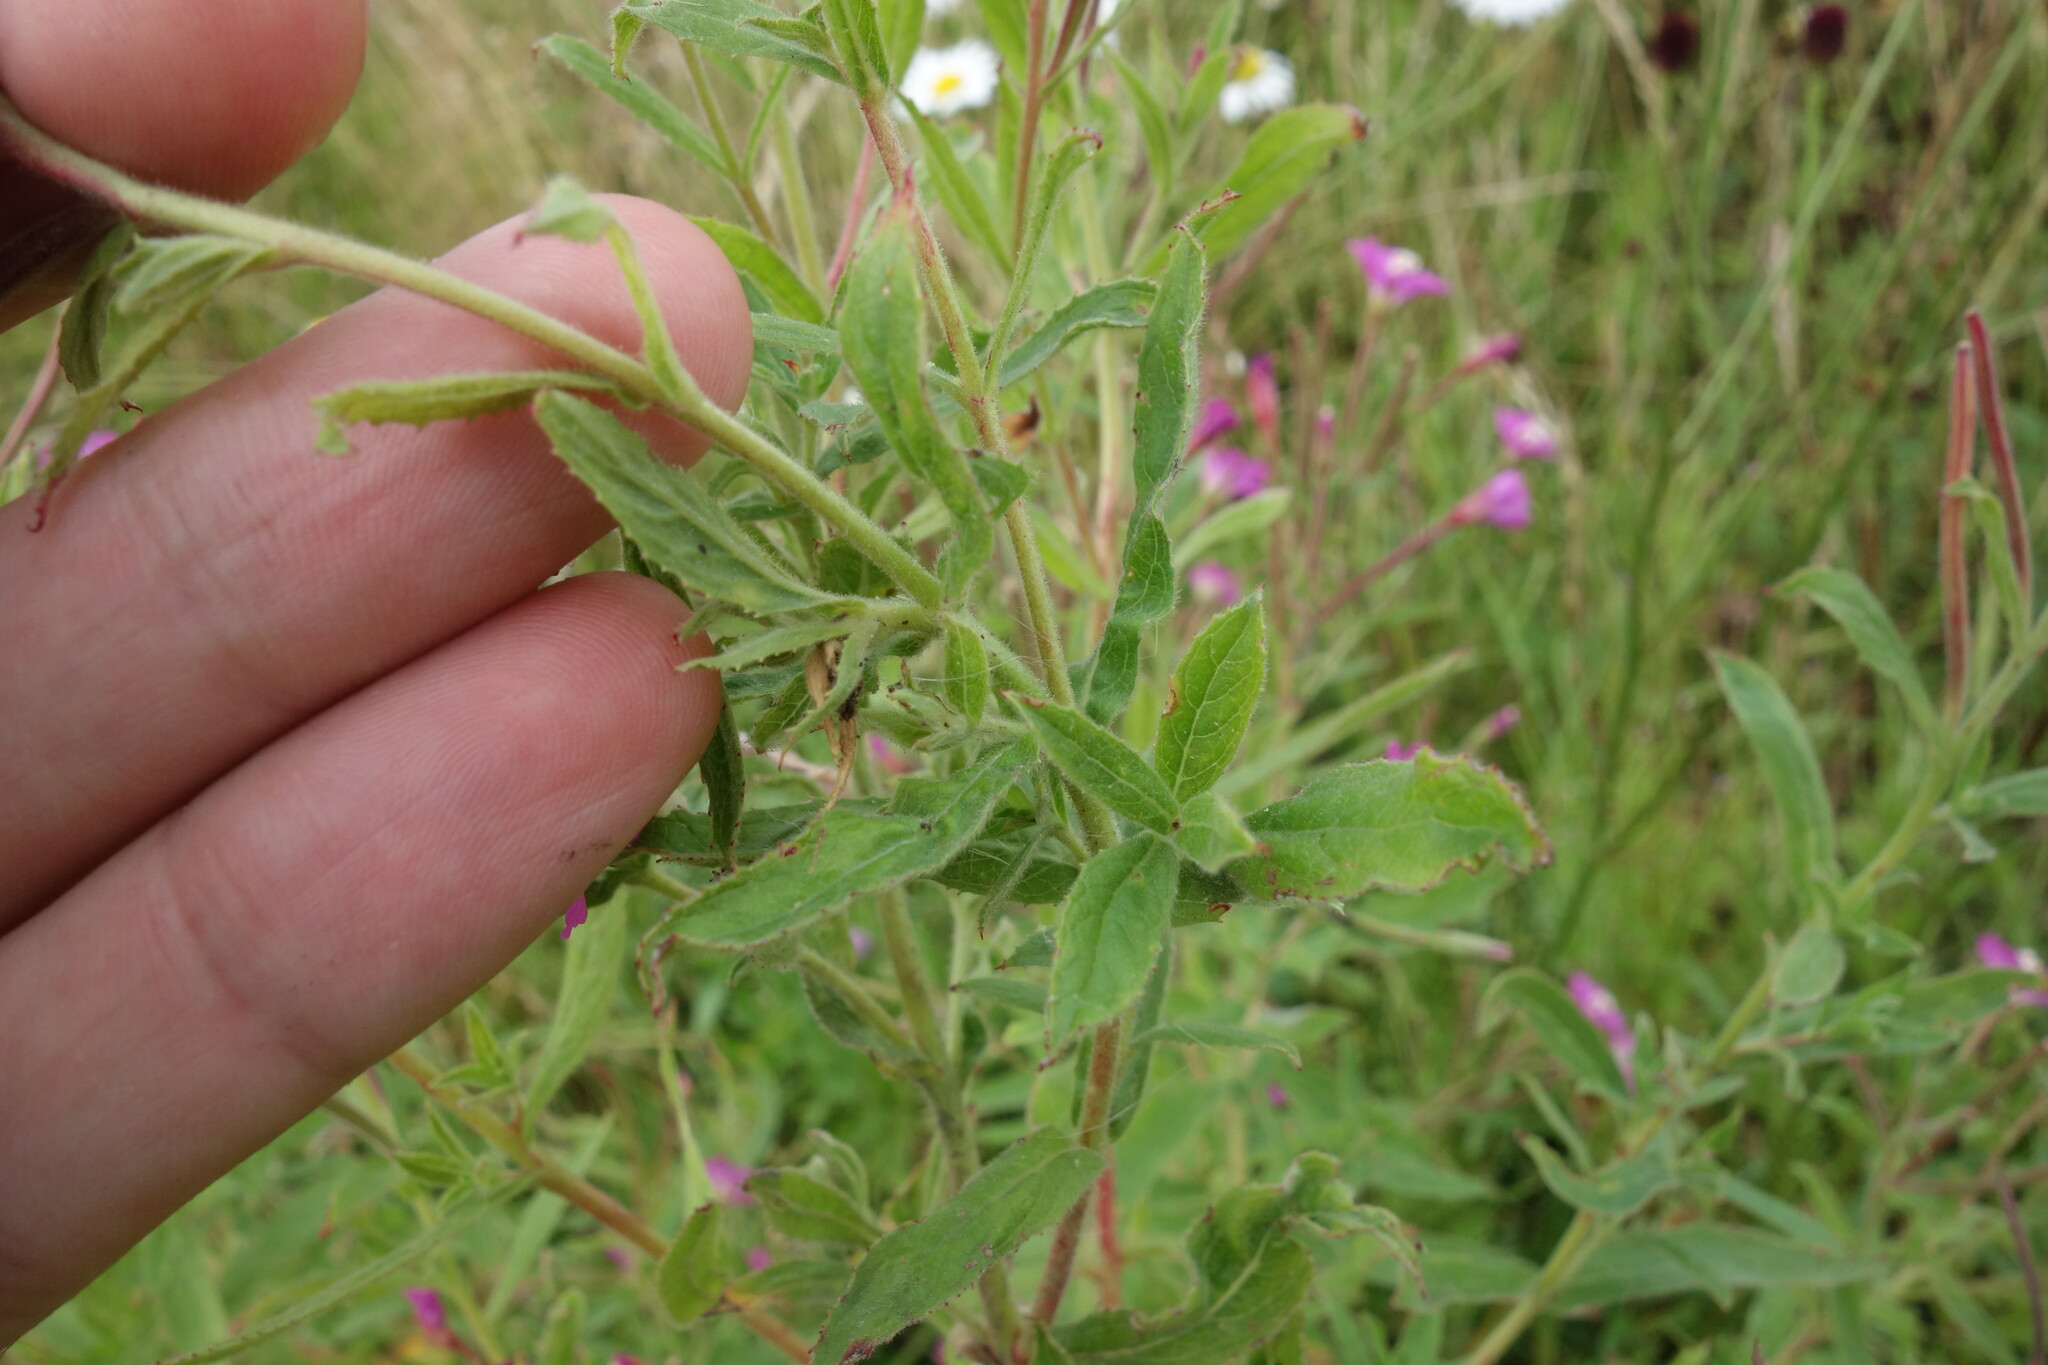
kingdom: Plantae
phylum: Tracheophyta
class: Magnoliopsida
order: Myrtales
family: Onagraceae
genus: Epilobium
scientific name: Epilobium hirsutum
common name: Great willowherb
